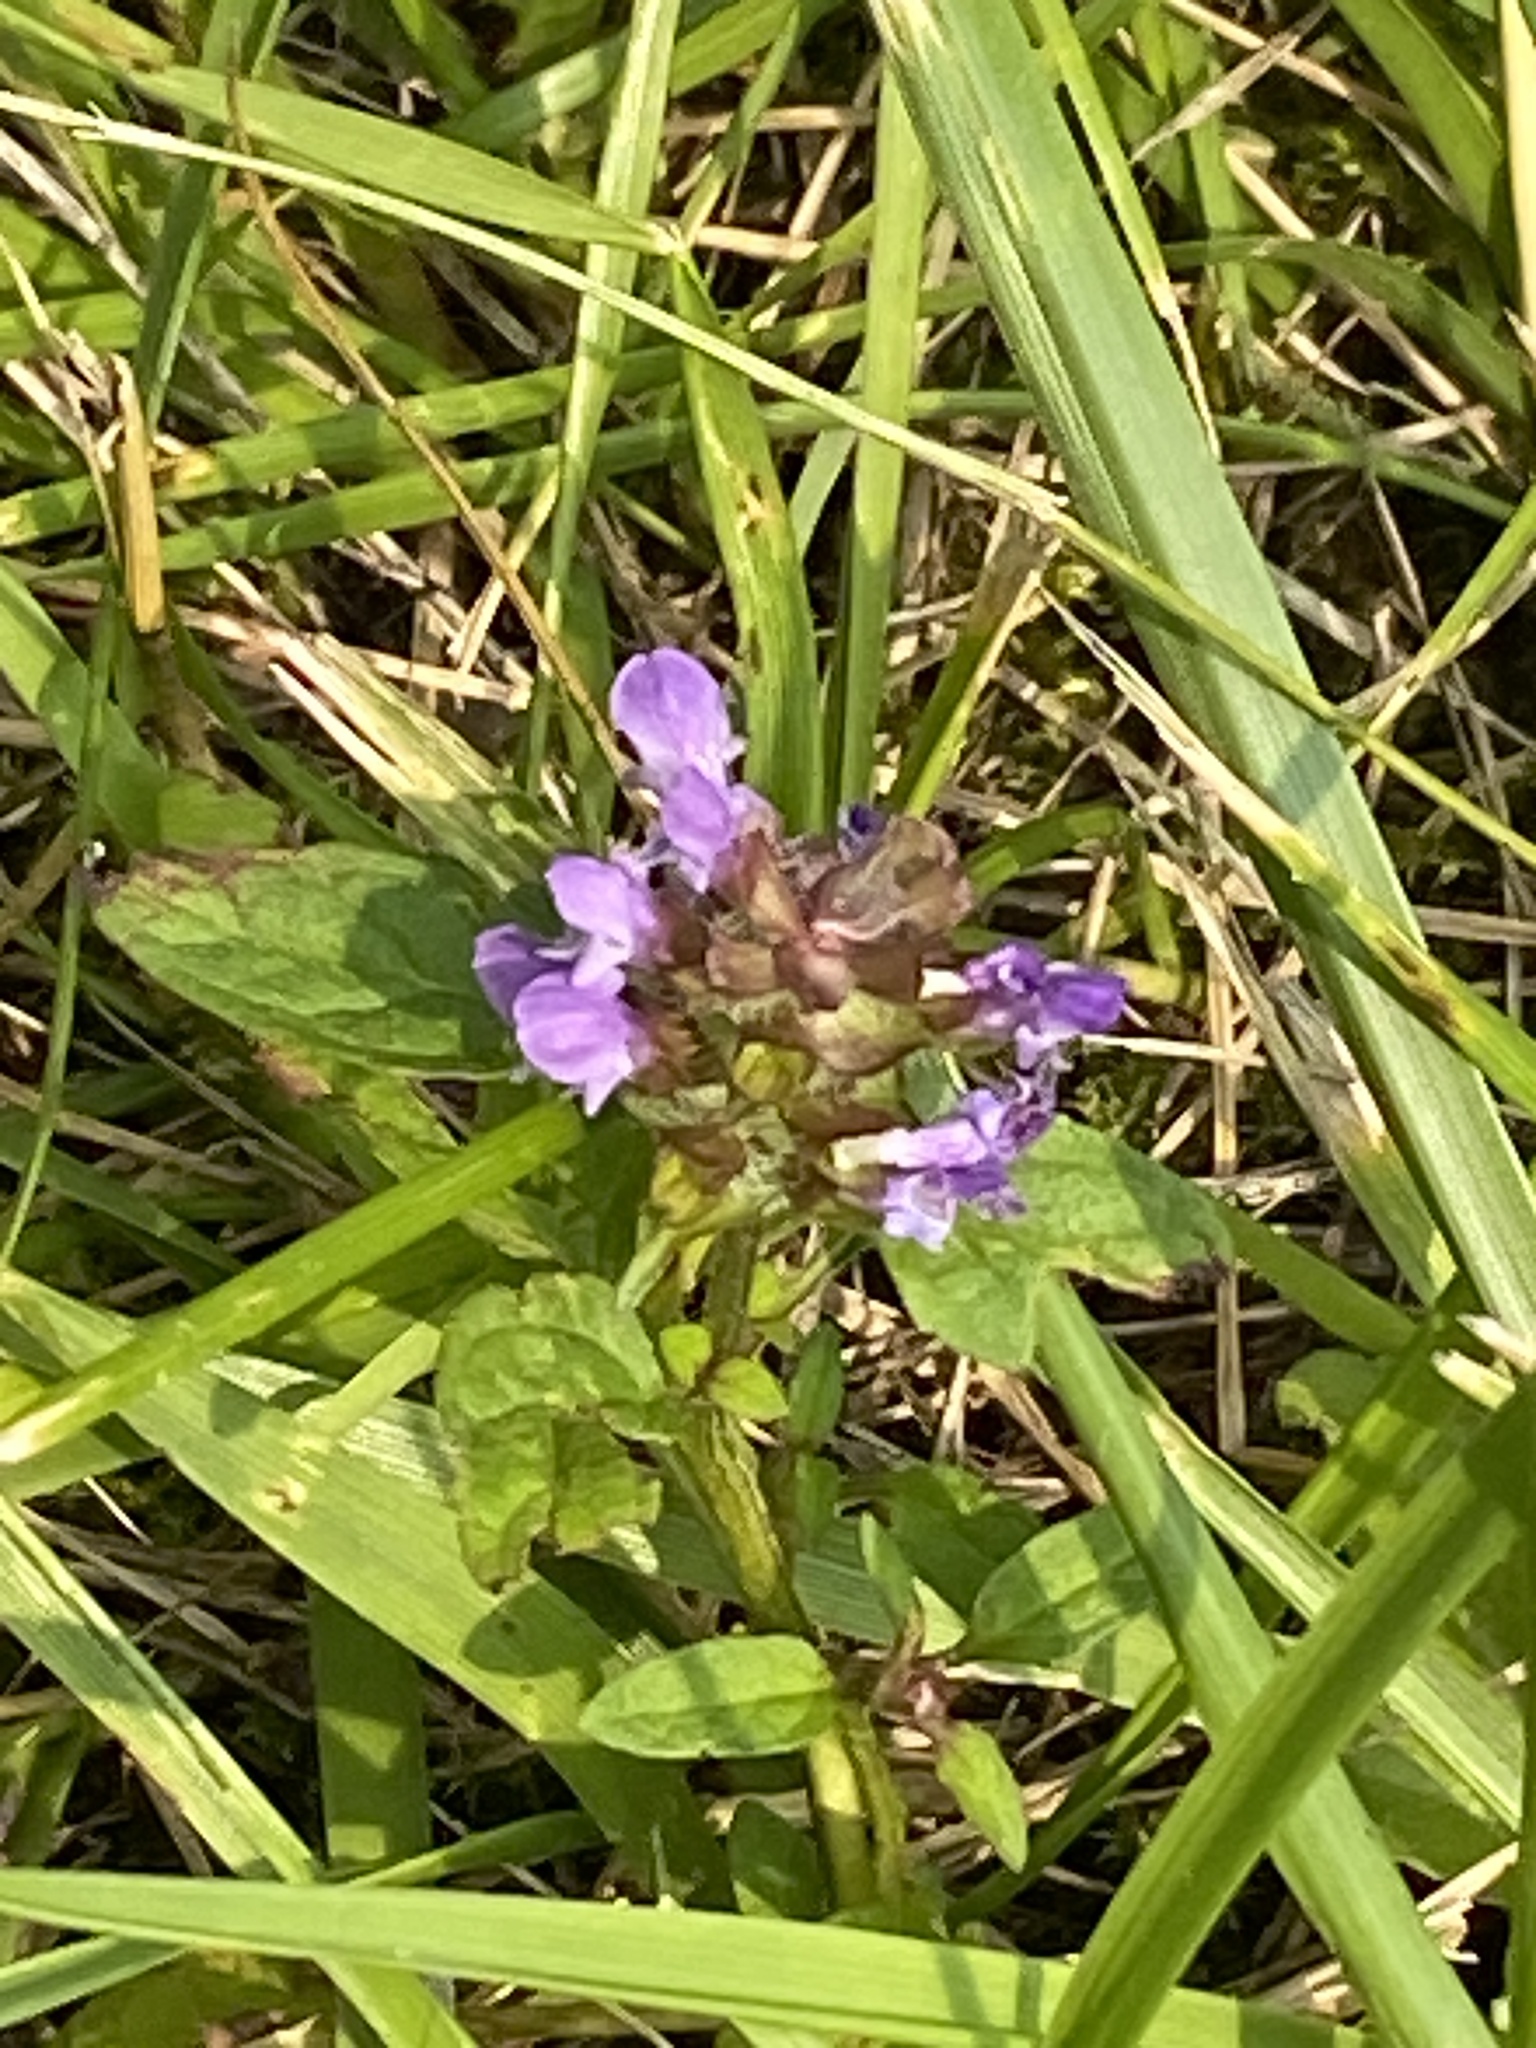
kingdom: Plantae
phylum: Tracheophyta
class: Magnoliopsida
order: Lamiales
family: Lamiaceae
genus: Prunella
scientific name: Prunella vulgaris
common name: Heal-all
